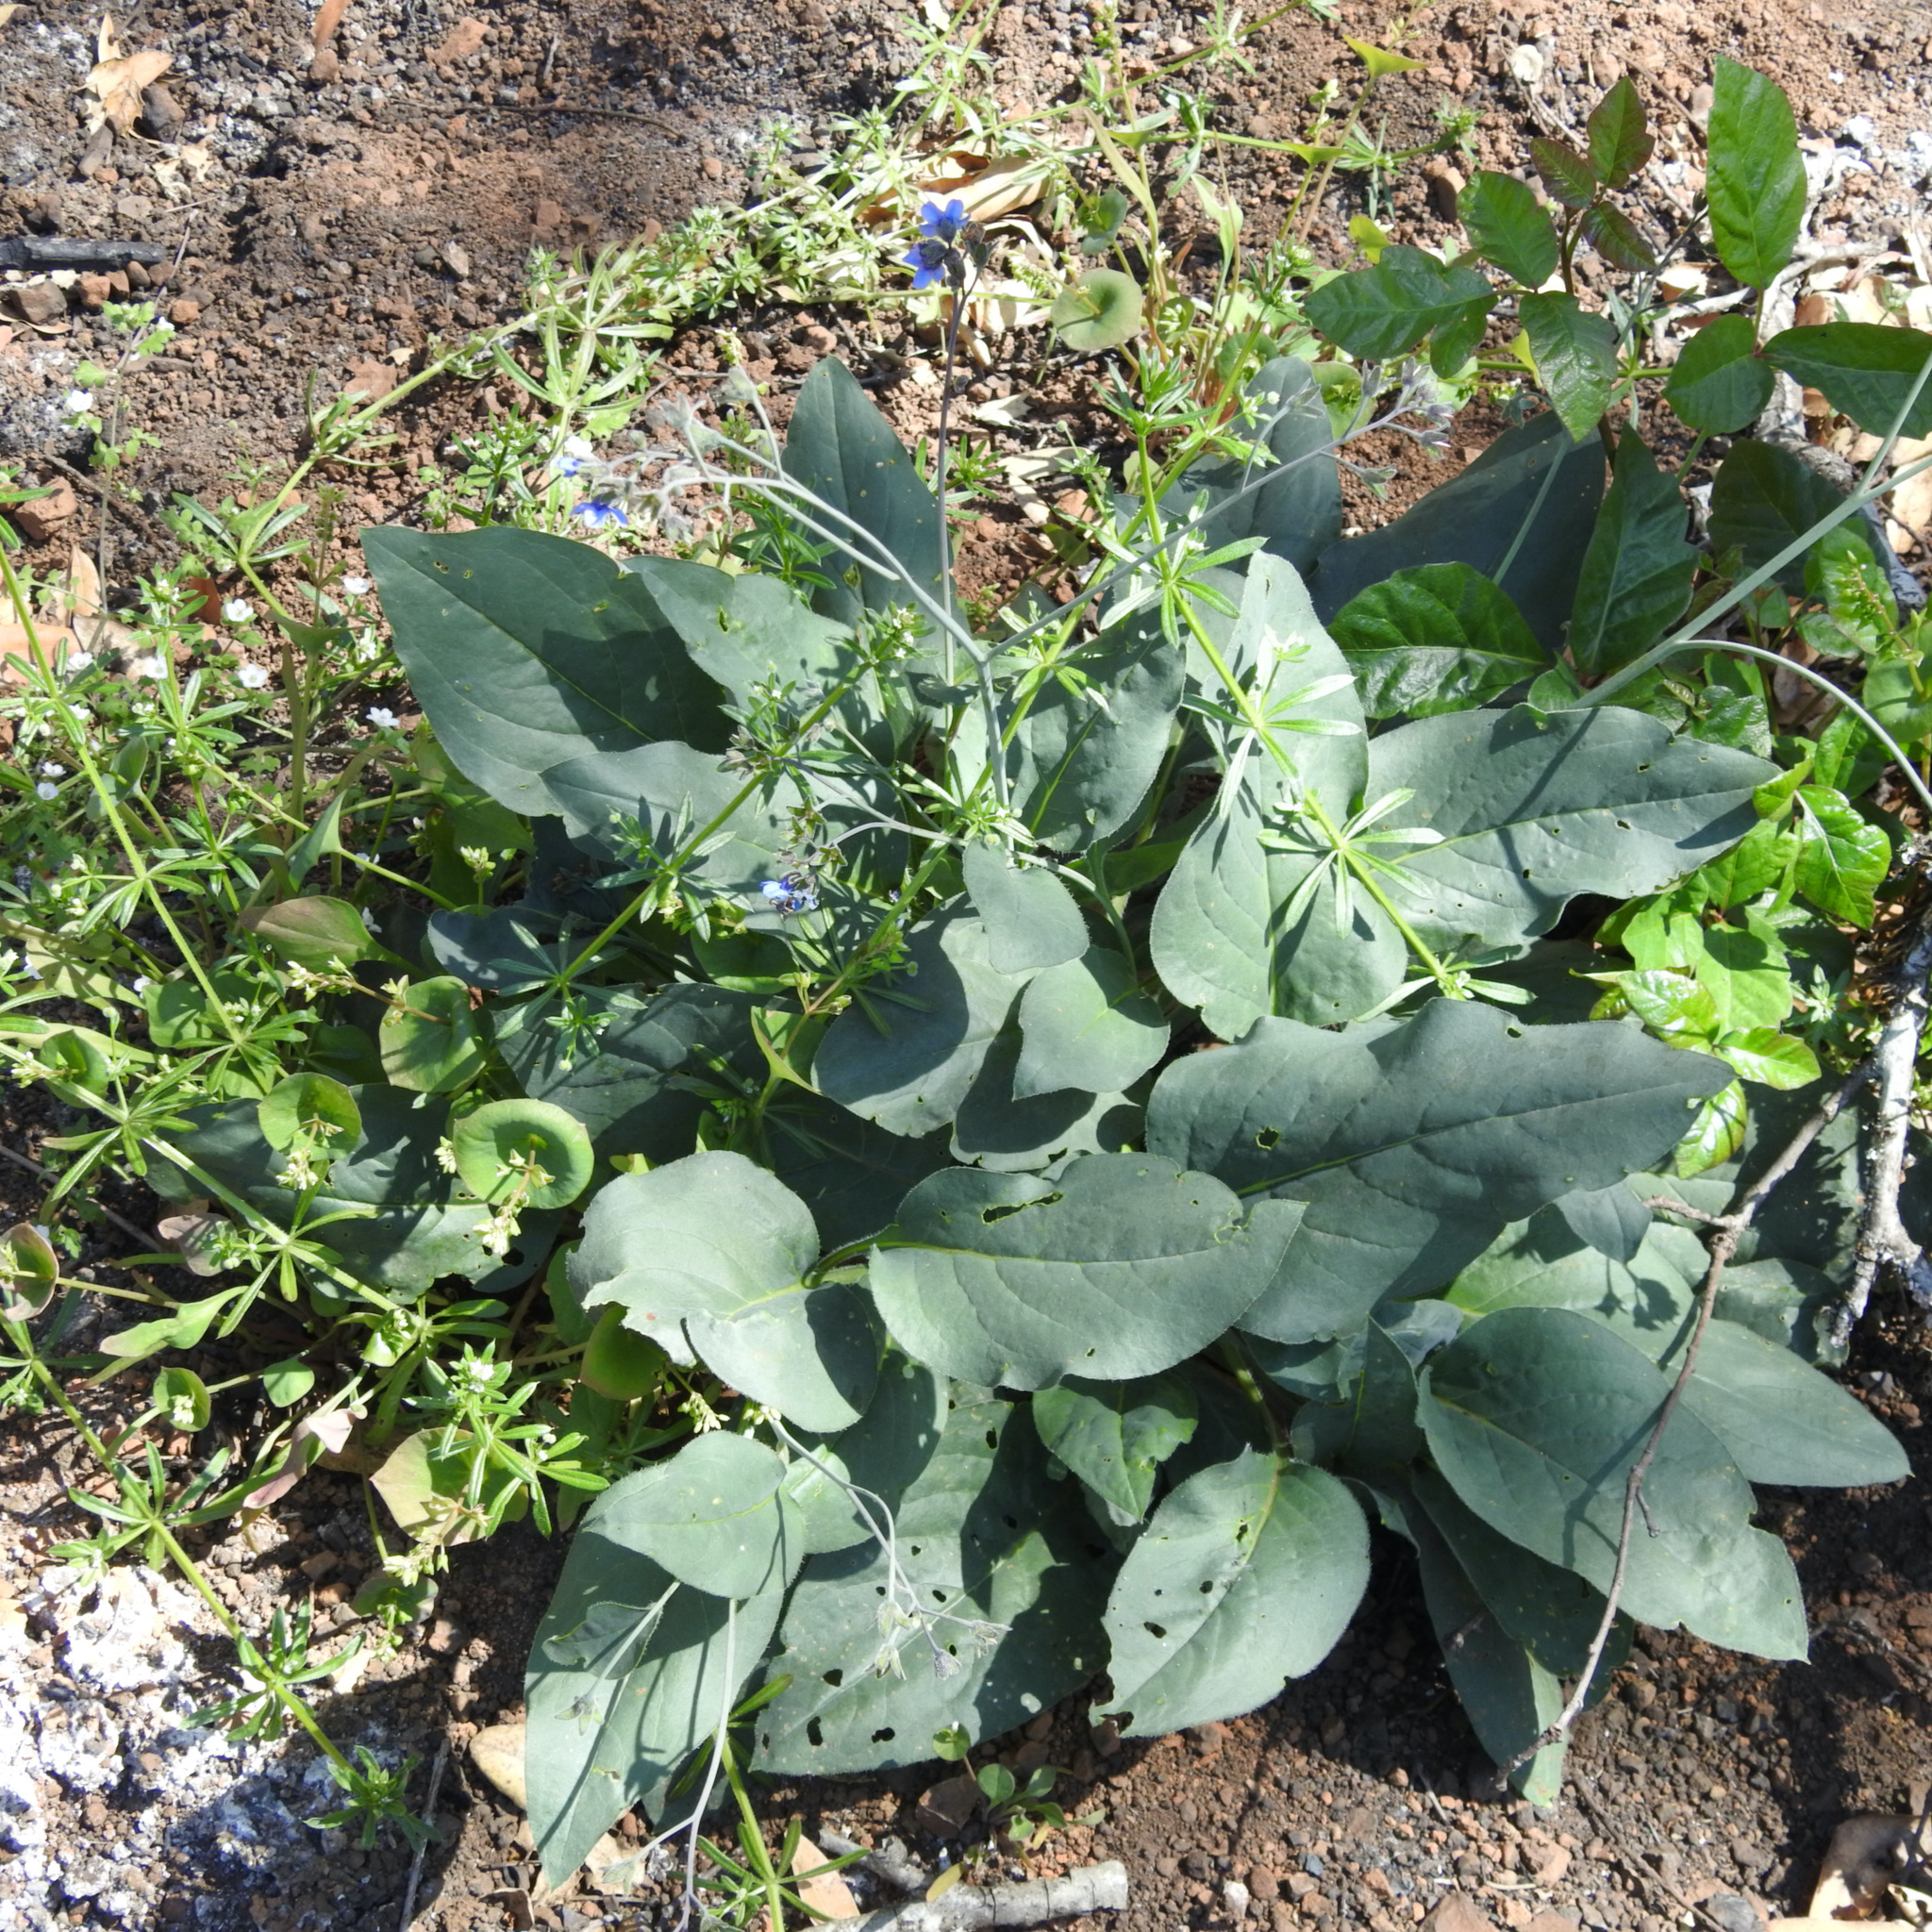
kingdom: Plantae
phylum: Tracheophyta
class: Magnoliopsida
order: Boraginales
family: Boraginaceae
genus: Adelinia
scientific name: Adelinia grande
